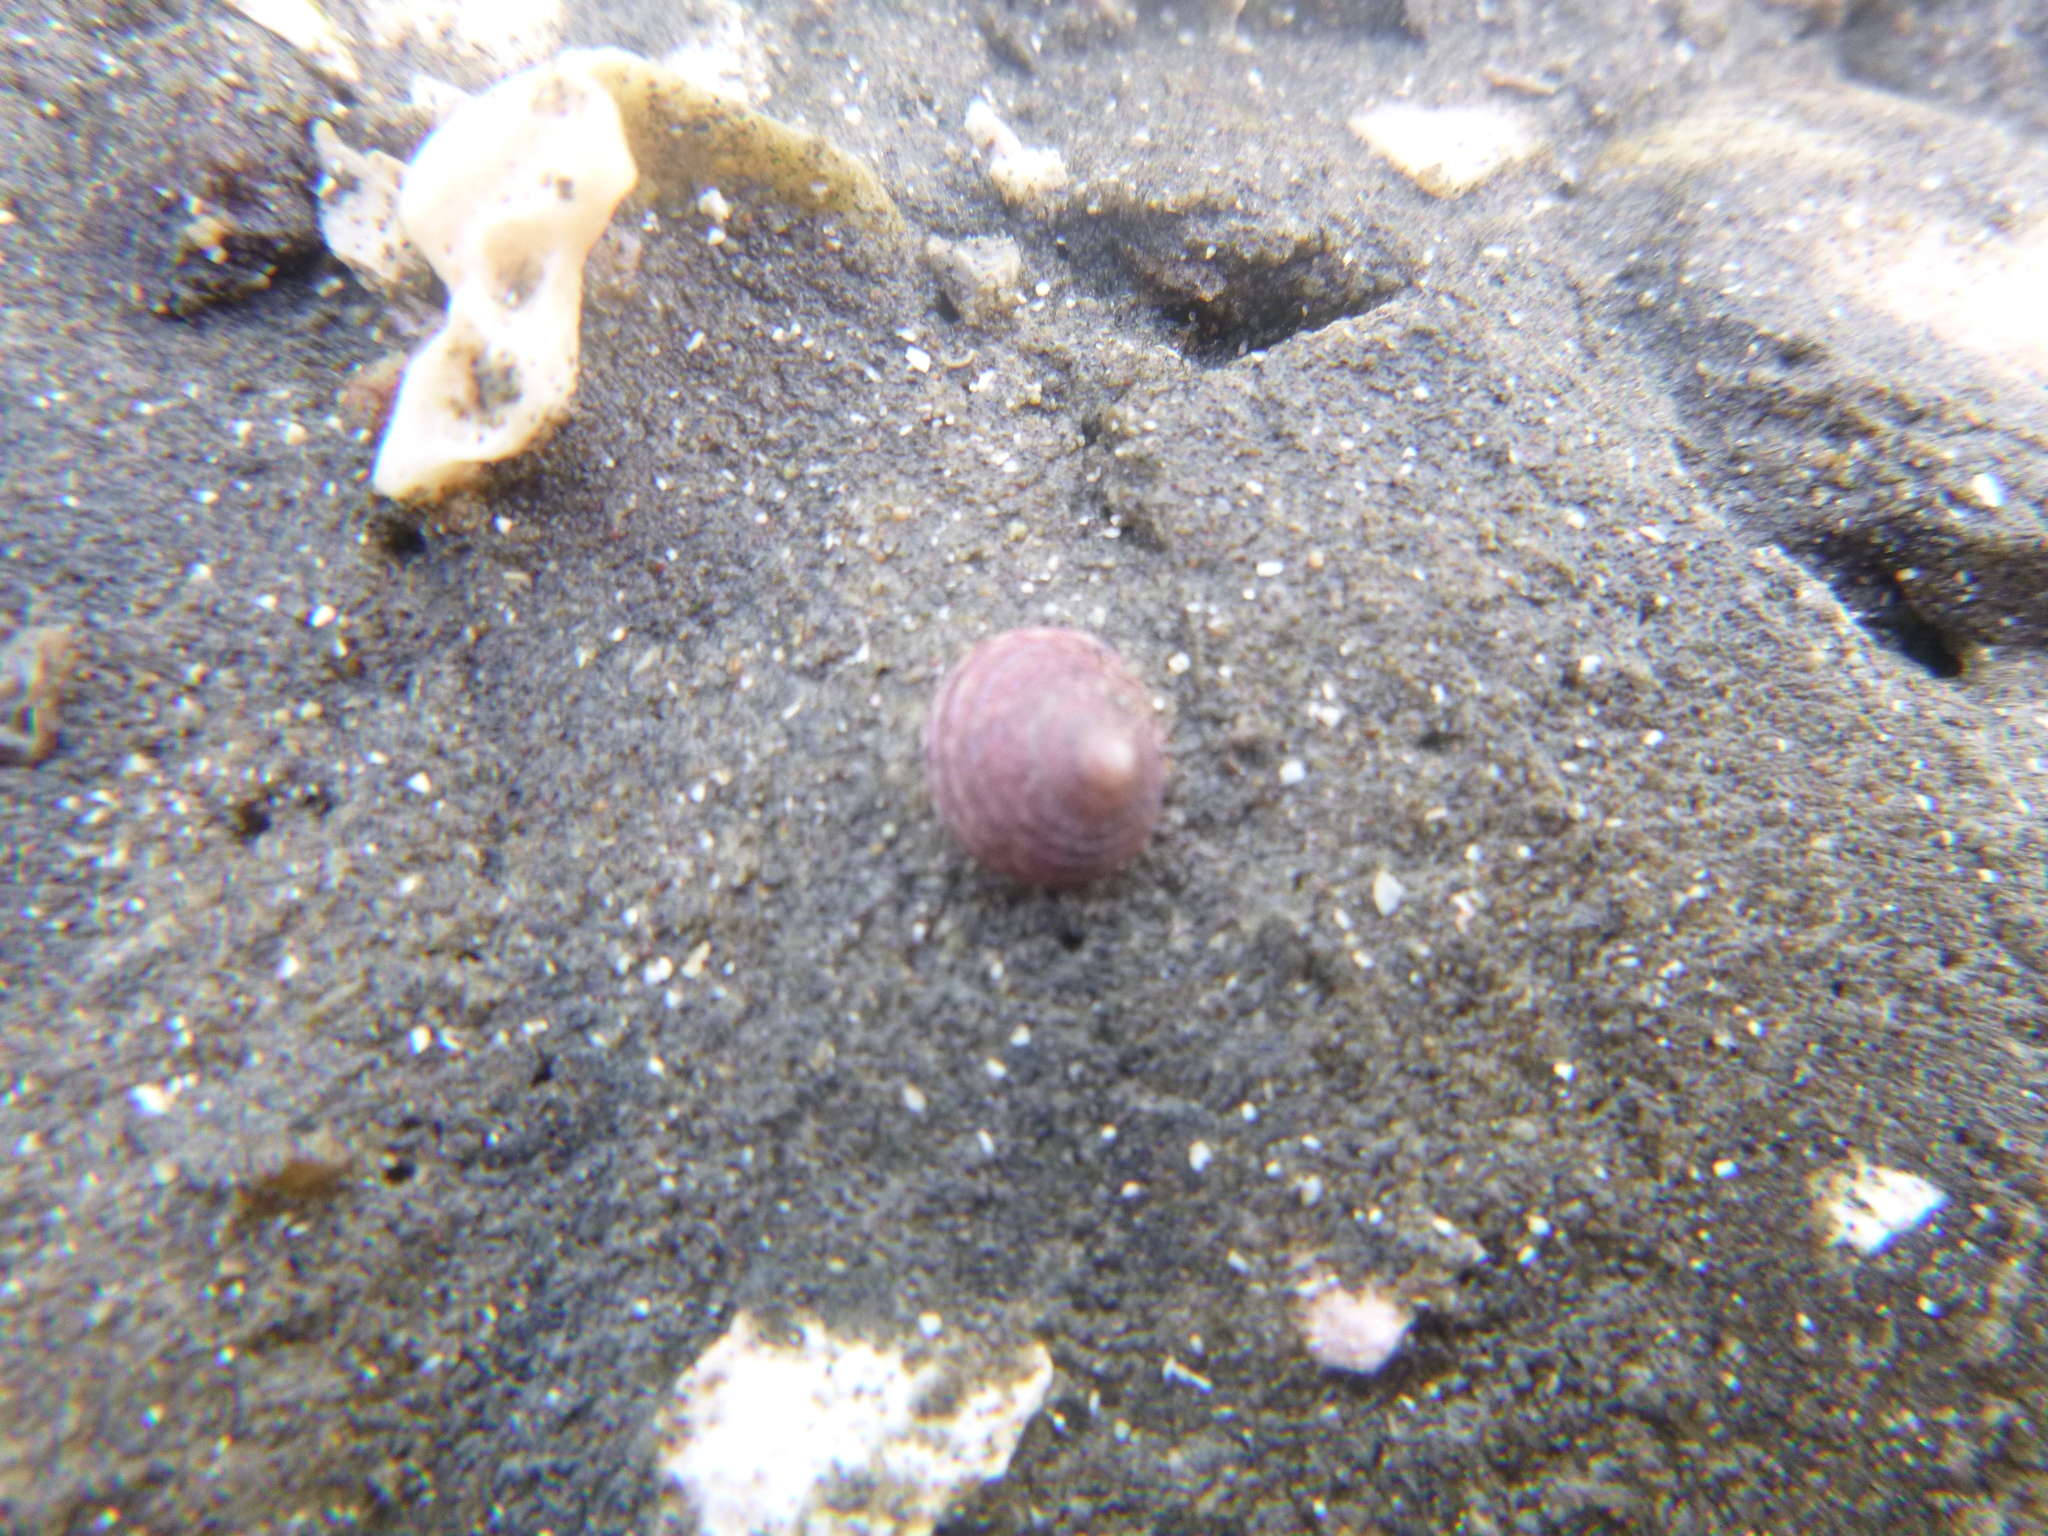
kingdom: Animalia
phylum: Mollusca
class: Gastropoda
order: Trochida
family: Trochidae
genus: Diloma
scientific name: Diloma subrostratum
